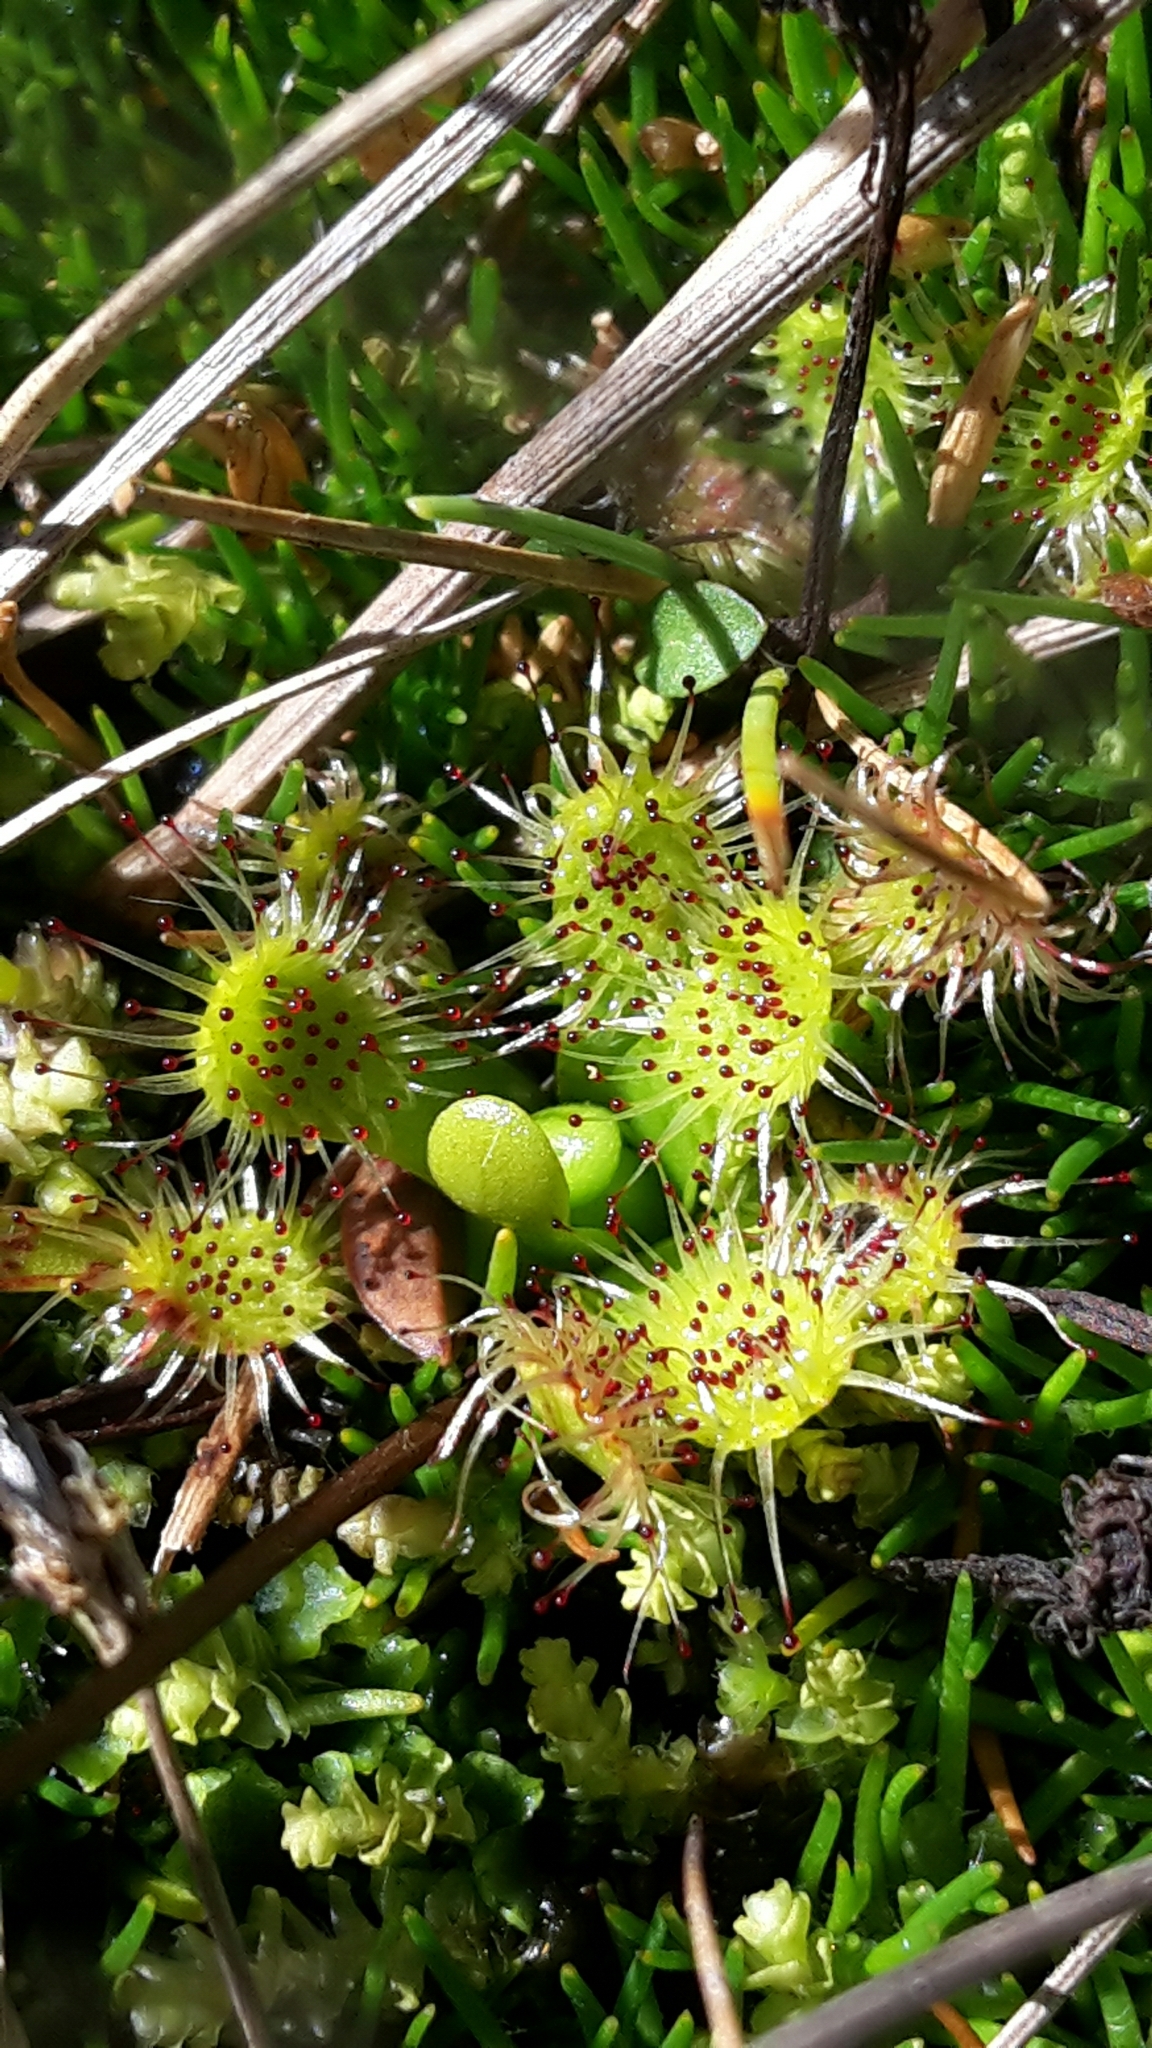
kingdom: Plantae
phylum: Tracheophyta
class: Magnoliopsida
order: Caryophyllales
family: Droseraceae
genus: Drosera
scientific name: Drosera stenopetala
